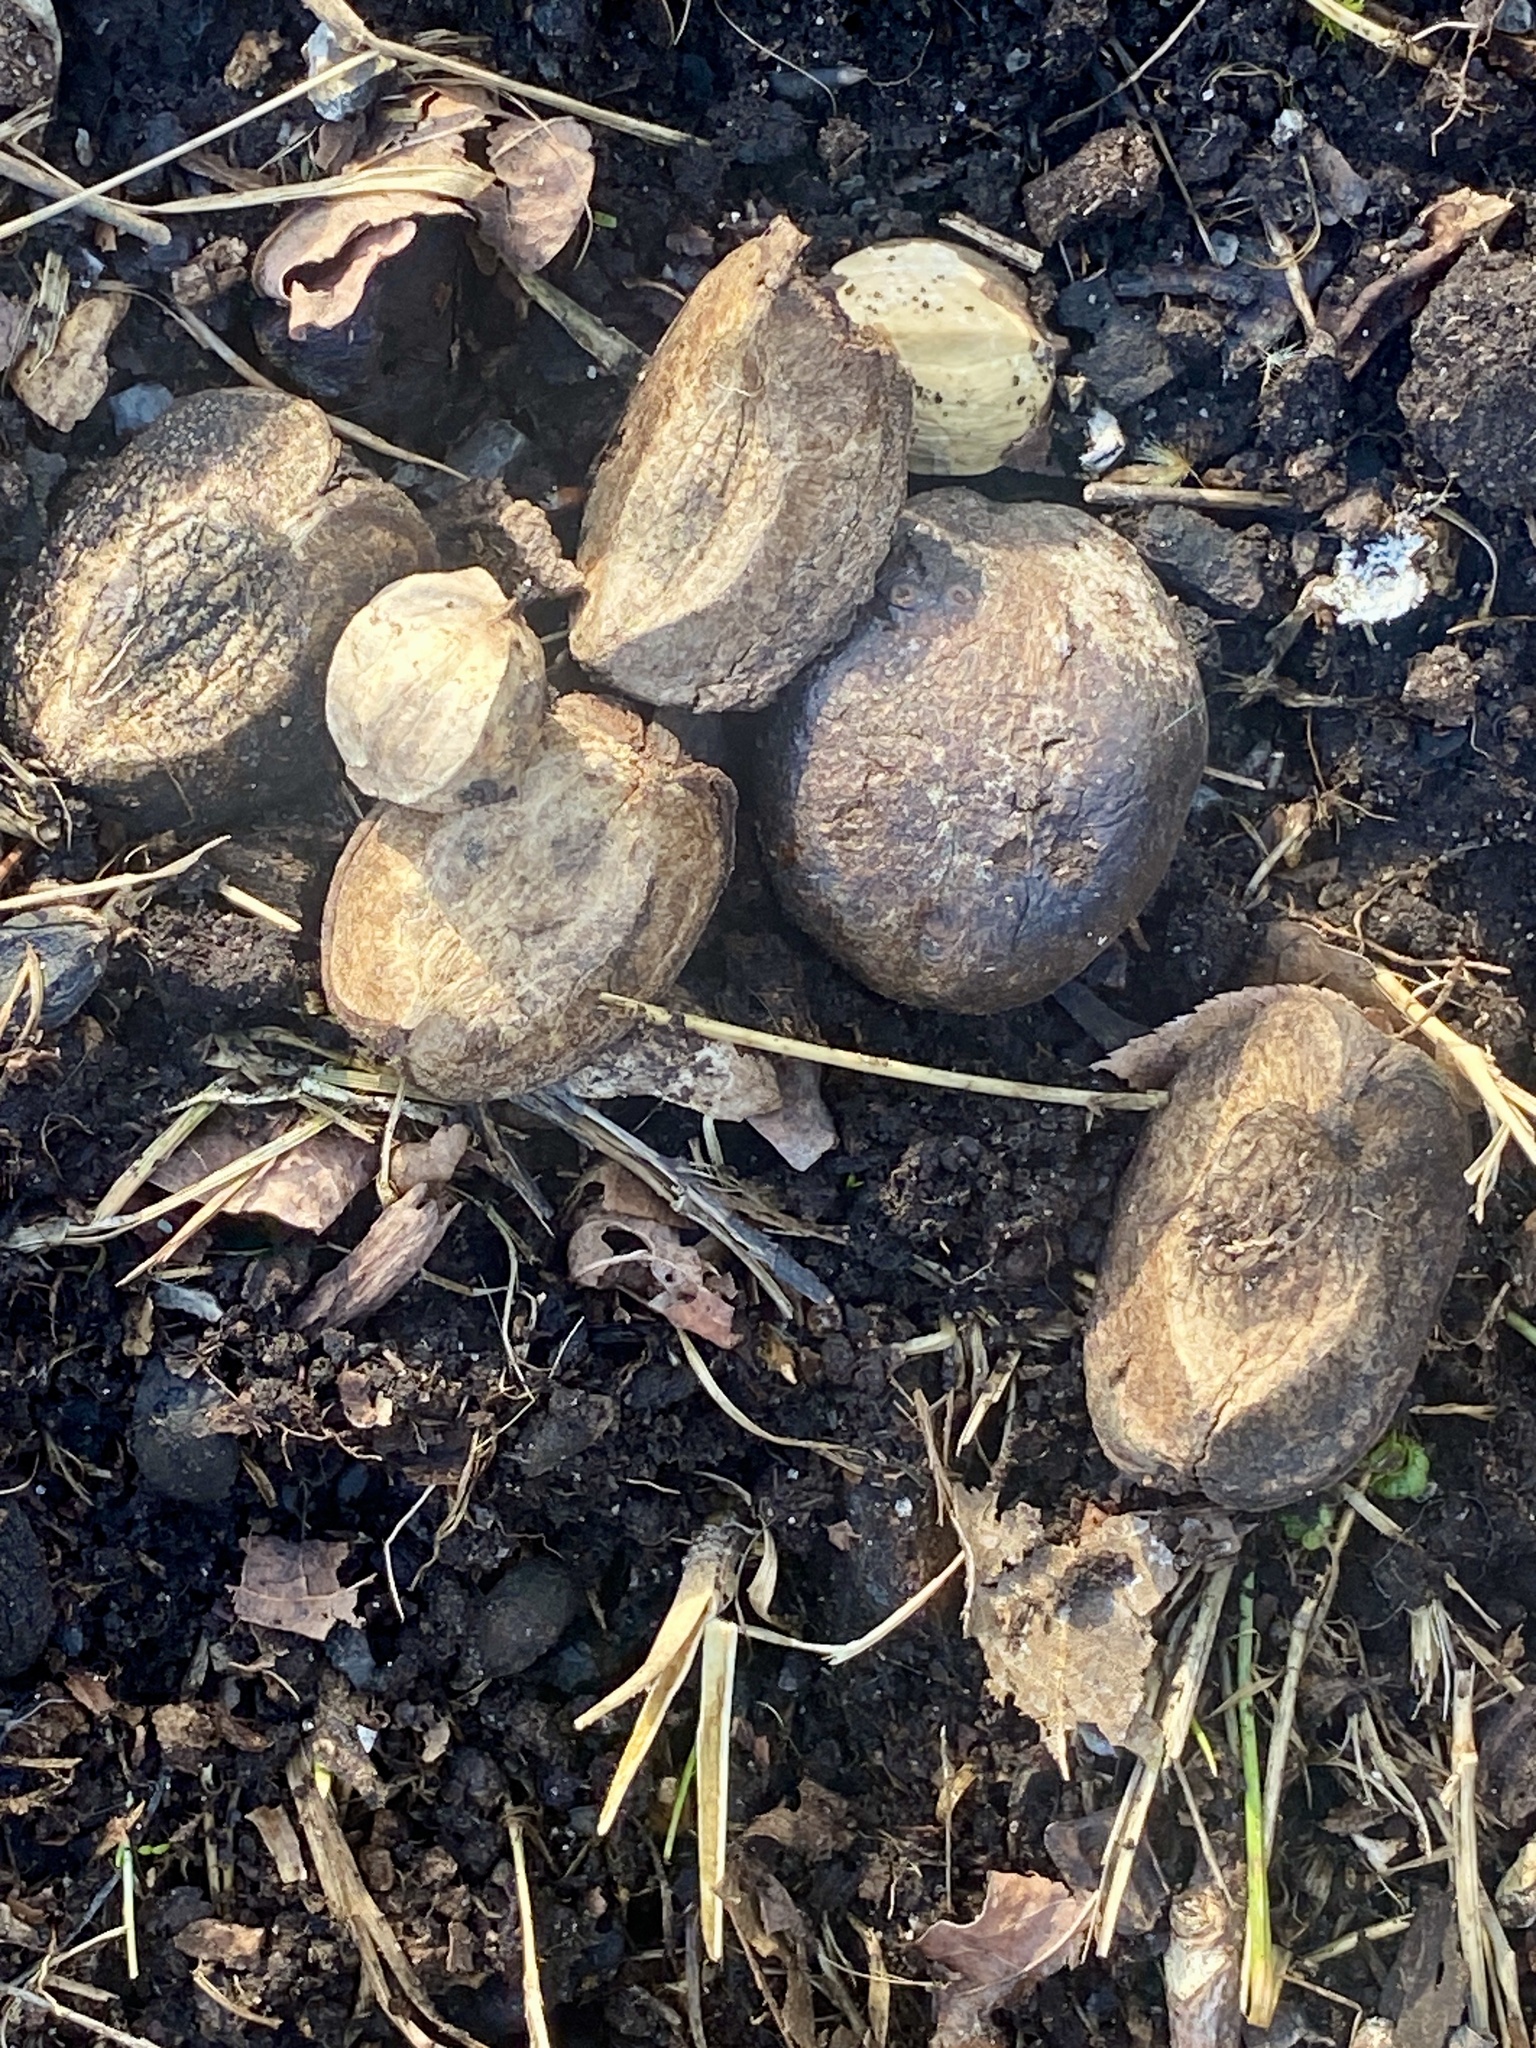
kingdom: Plantae
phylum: Tracheophyta
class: Magnoliopsida
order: Fagales
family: Juglandaceae
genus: Carya
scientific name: Carya ovata
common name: Shagbark hickory
